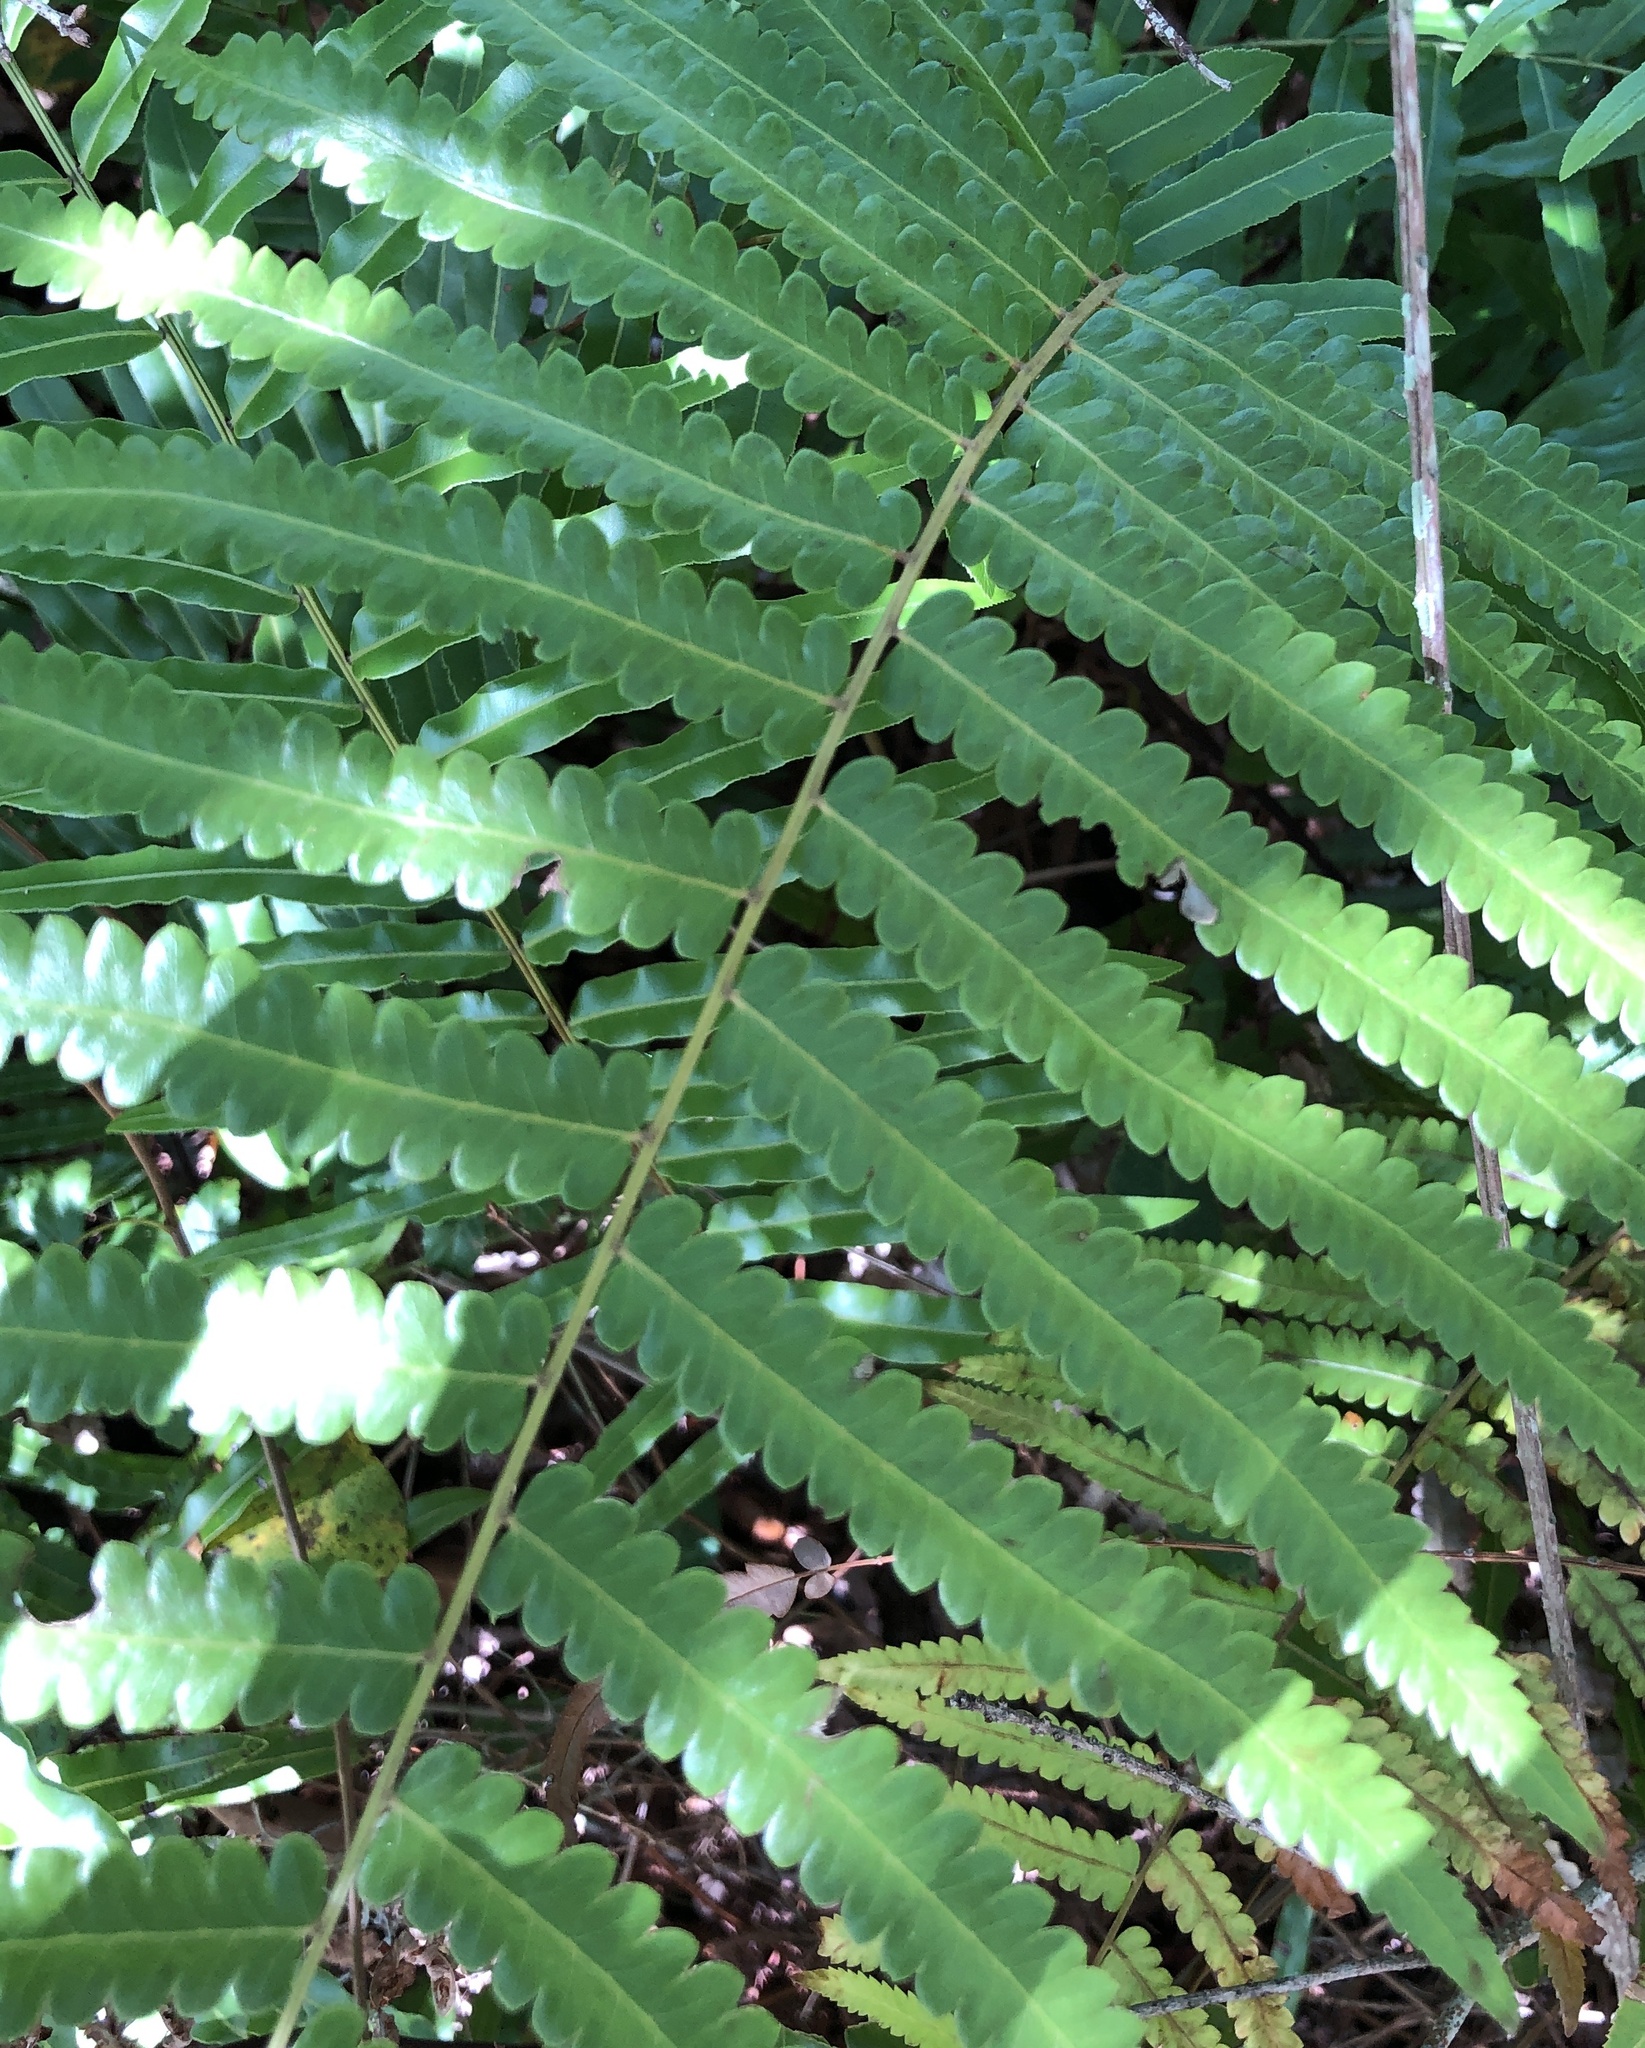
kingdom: Plantae
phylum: Tracheophyta
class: Polypodiopsida
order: Polypodiales
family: Thelypteridaceae
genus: Cyclosorus
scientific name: Cyclosorus interruptus
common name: Neke fern
